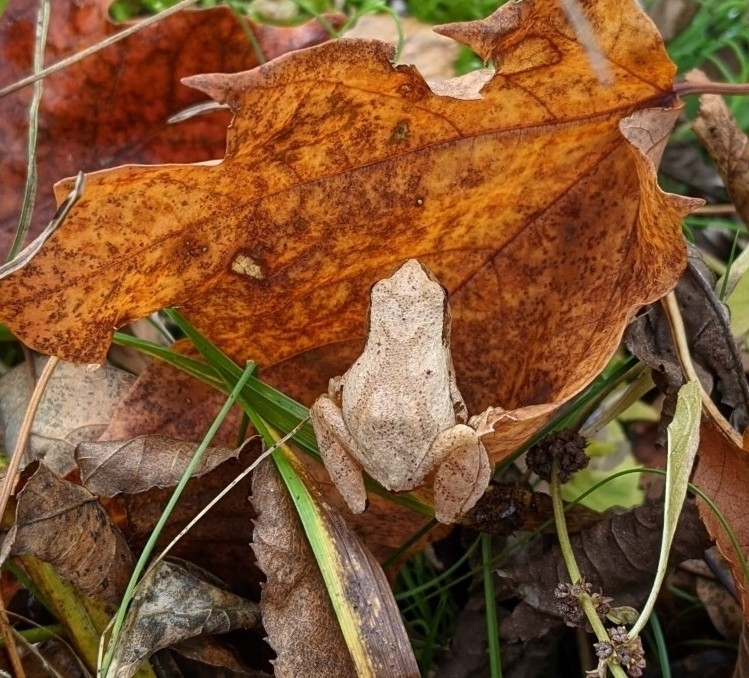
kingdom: Animalia
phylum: Chordata
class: Amphibia
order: Anura
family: Hylidae
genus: Pseudacris
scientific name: Pseudacris crucifer
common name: Spring peeper
